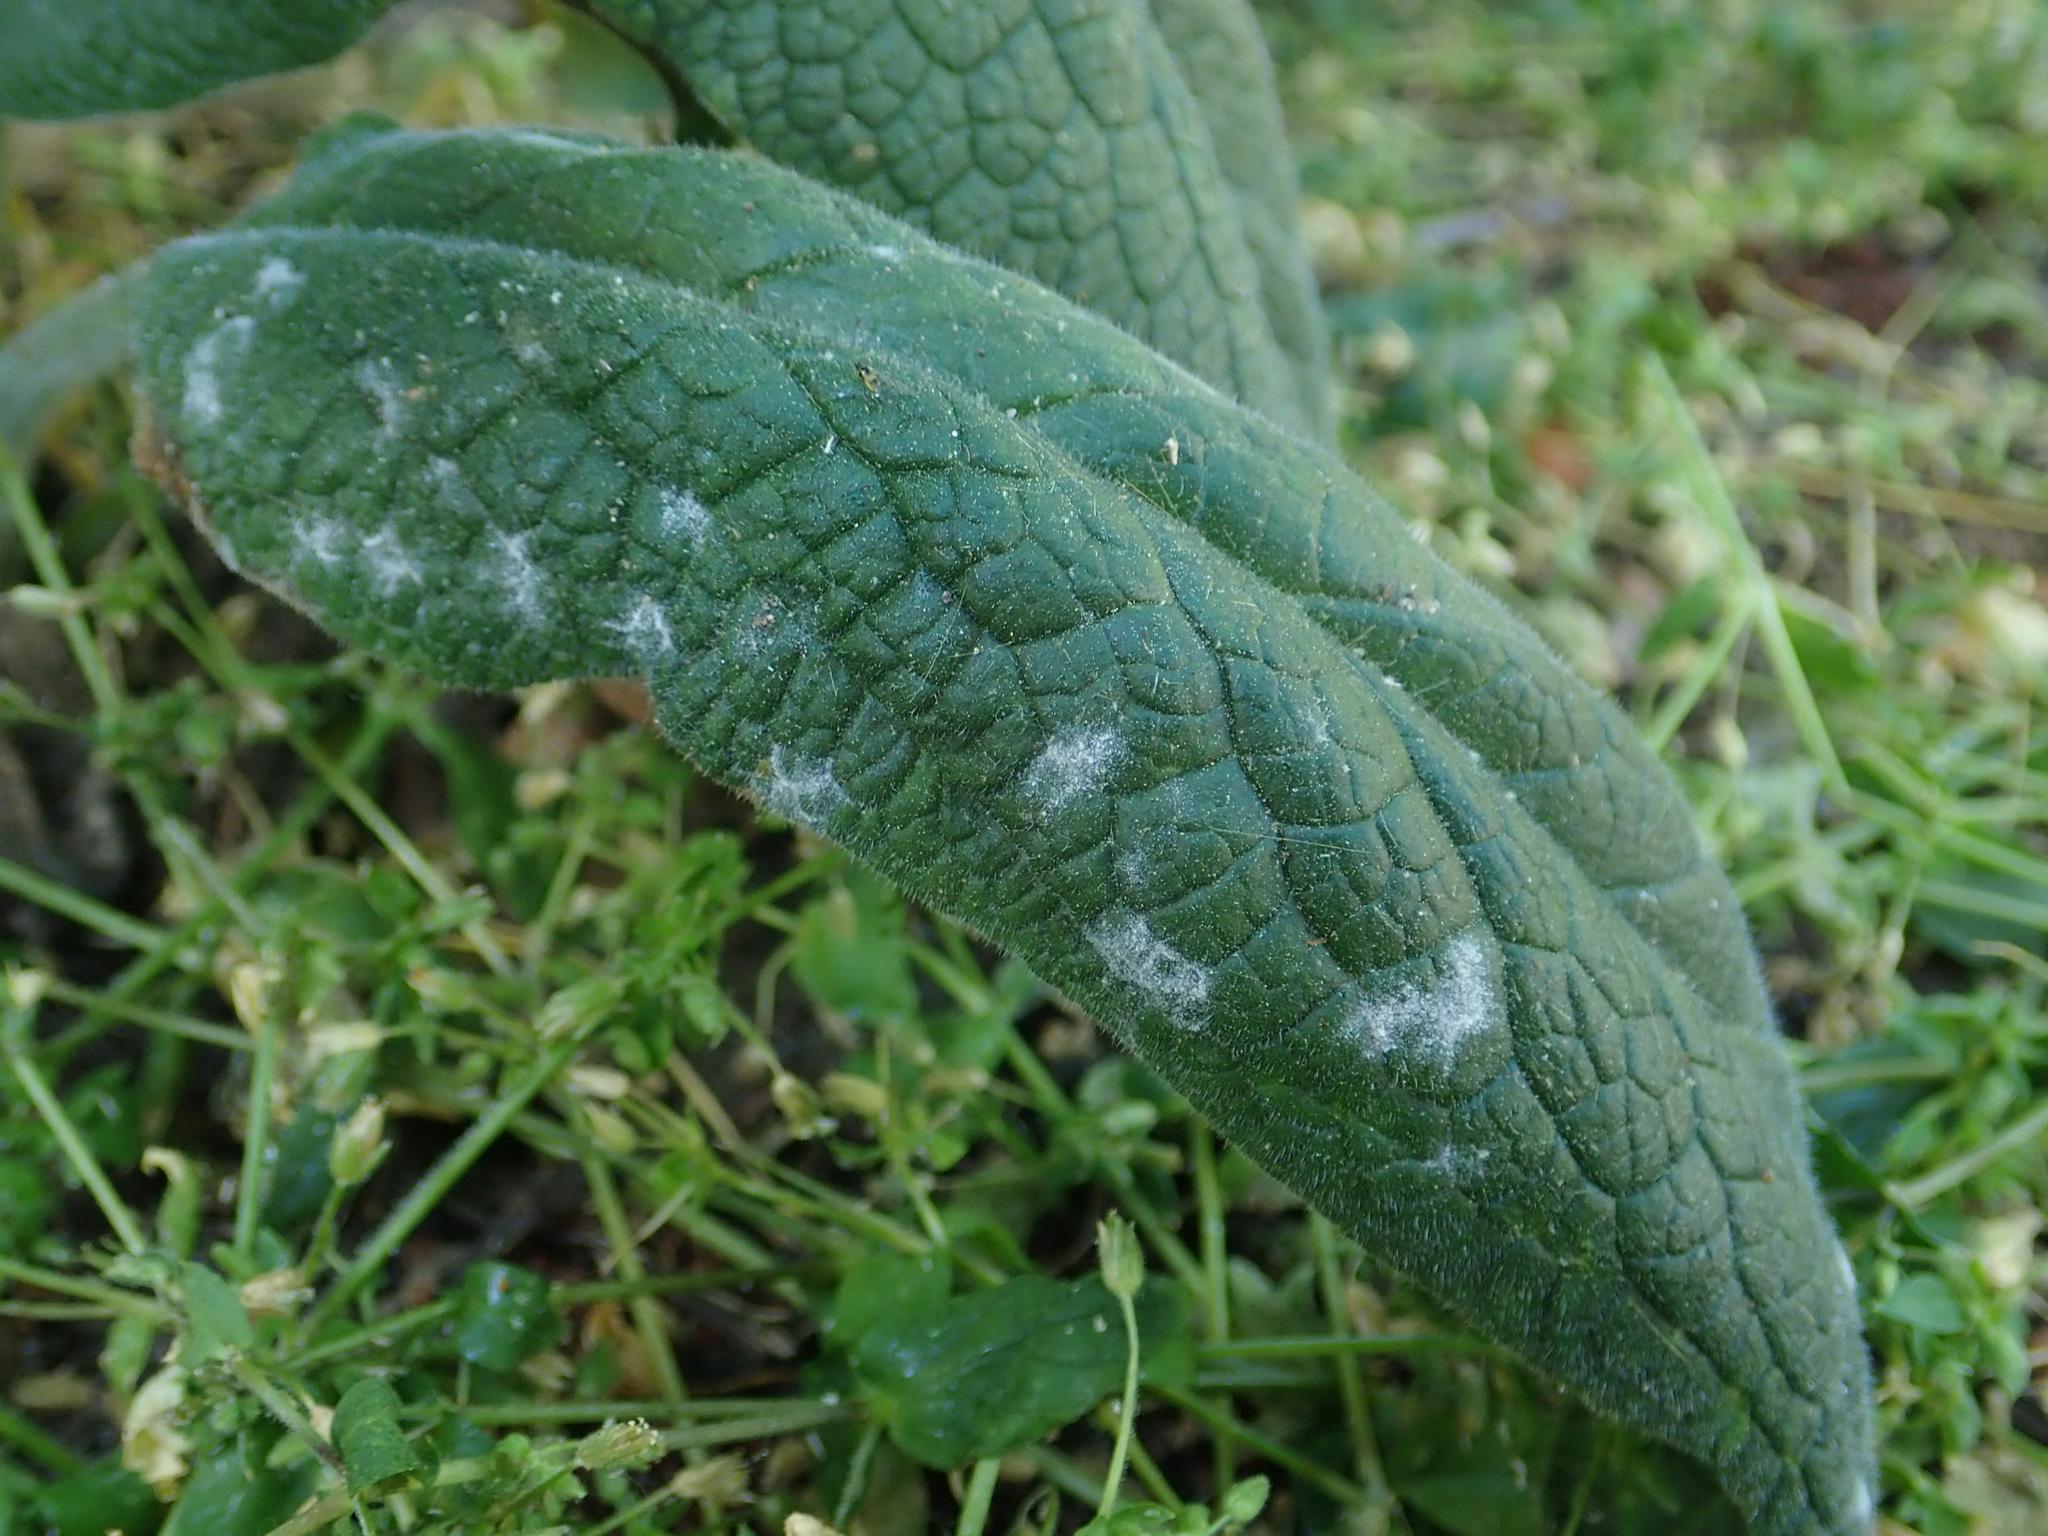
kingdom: Fungi
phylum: Ascomycota
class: Leotiomycetes
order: Helotiales
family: Erysiphaceae
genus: Golovinomyces
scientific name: Golovinomyces asperifoliorum
